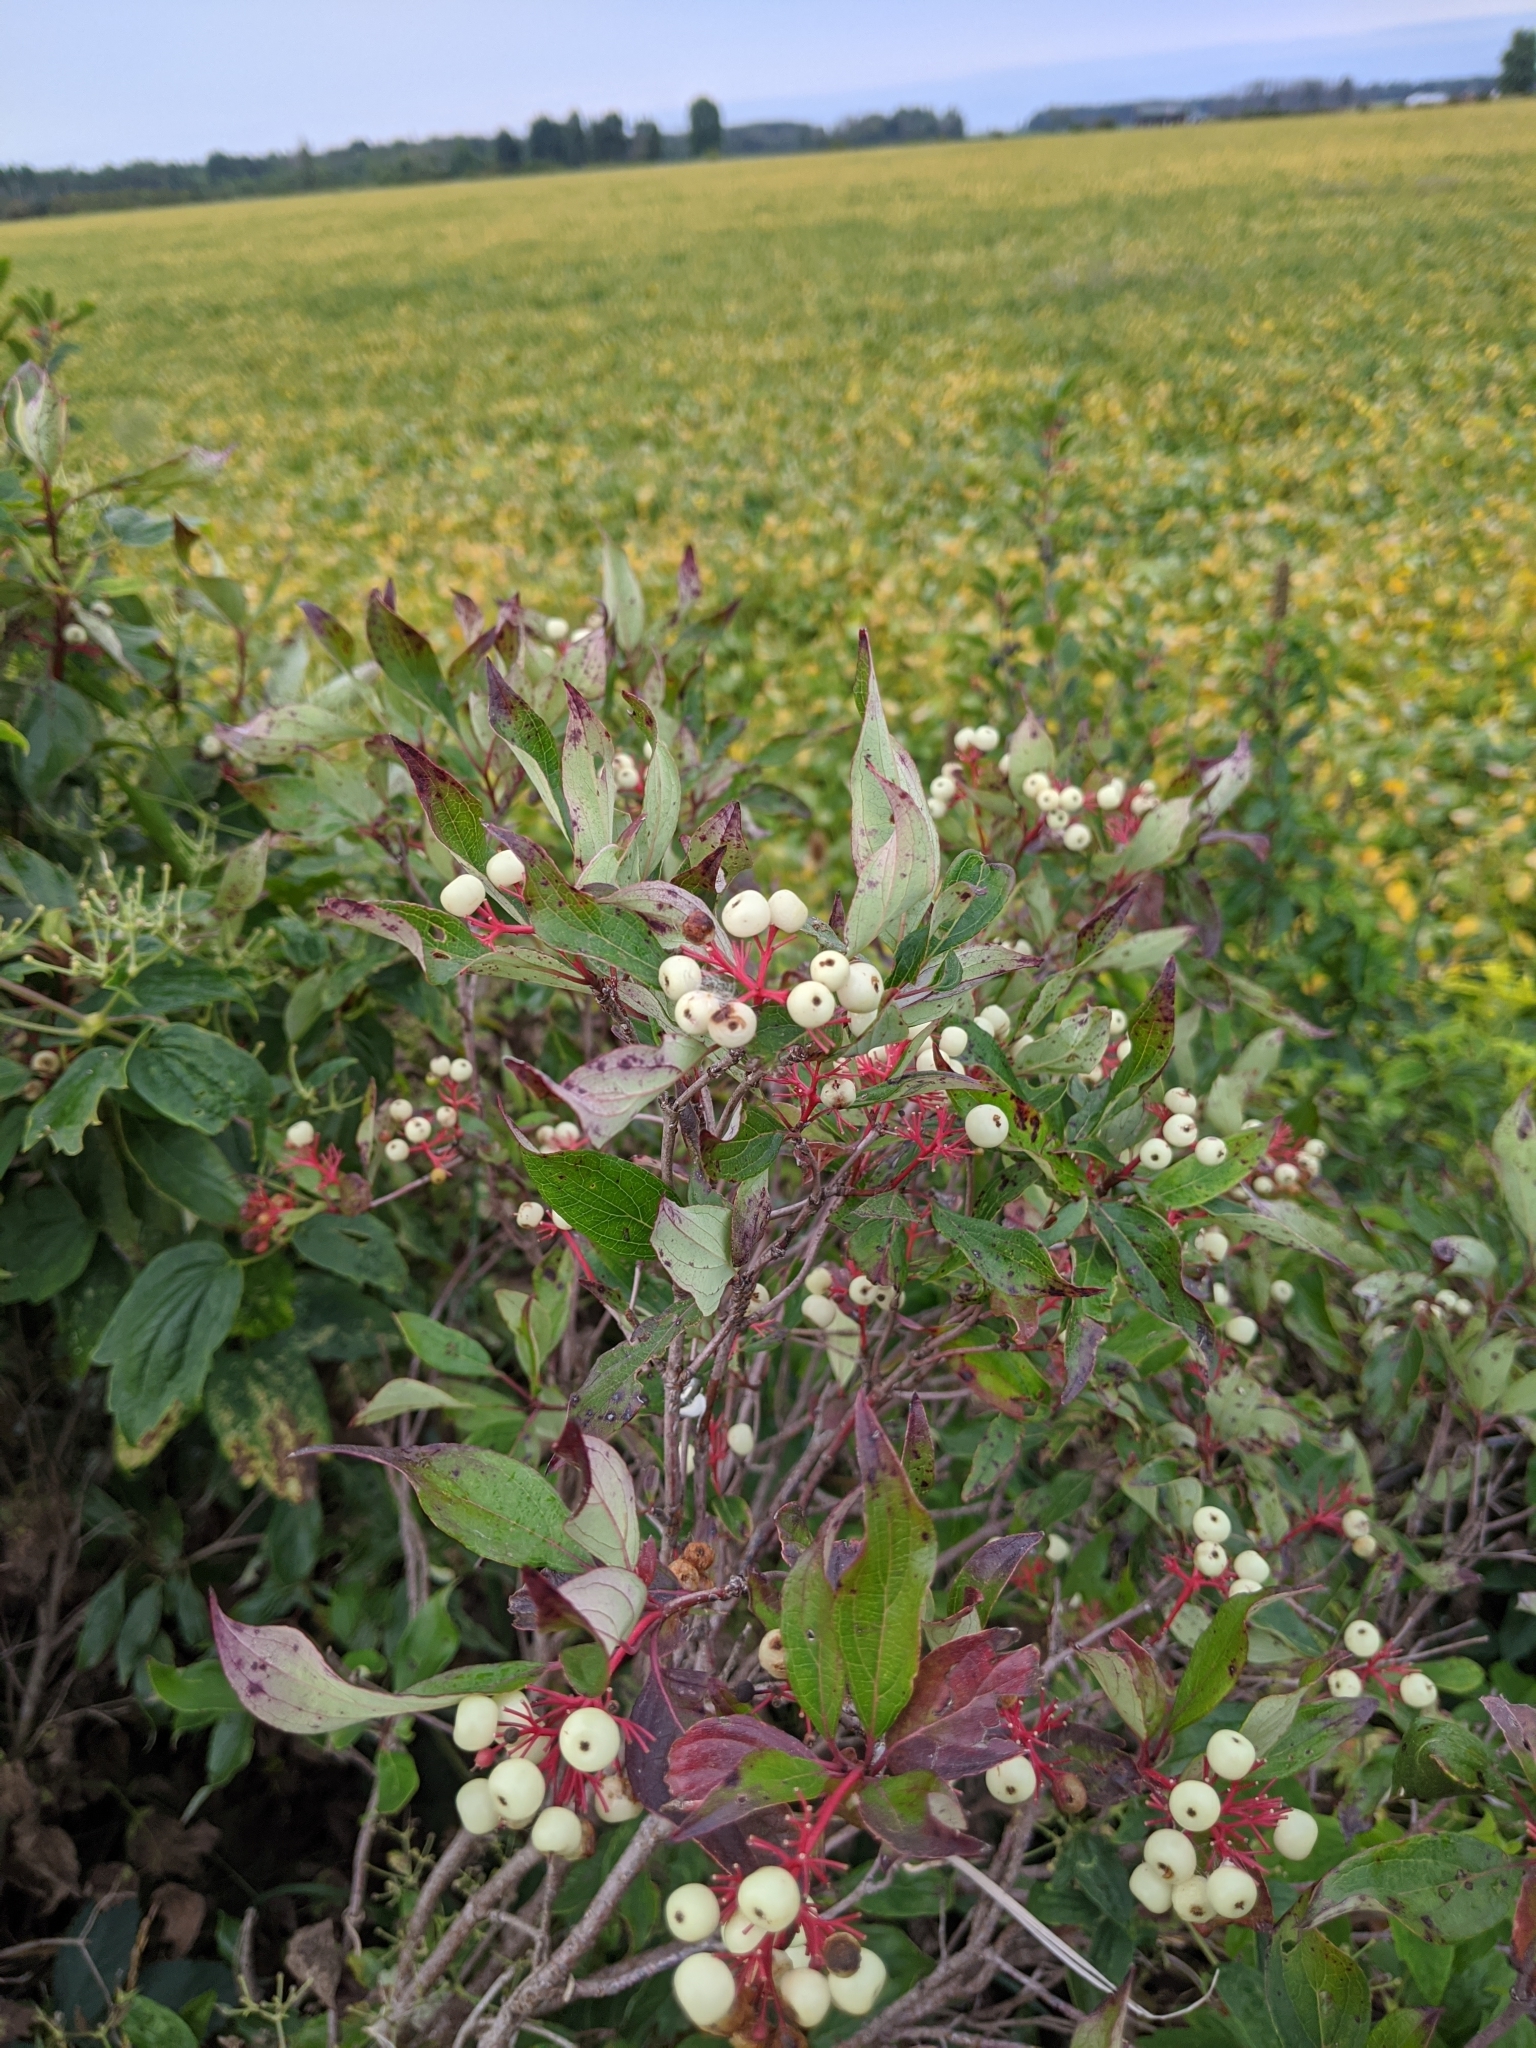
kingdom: Plantae
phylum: Tracheophyta
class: Magnoliopsida
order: Cornales
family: Cornaceae
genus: Cornus
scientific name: Cornus racemosa
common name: Panicled dogwood
